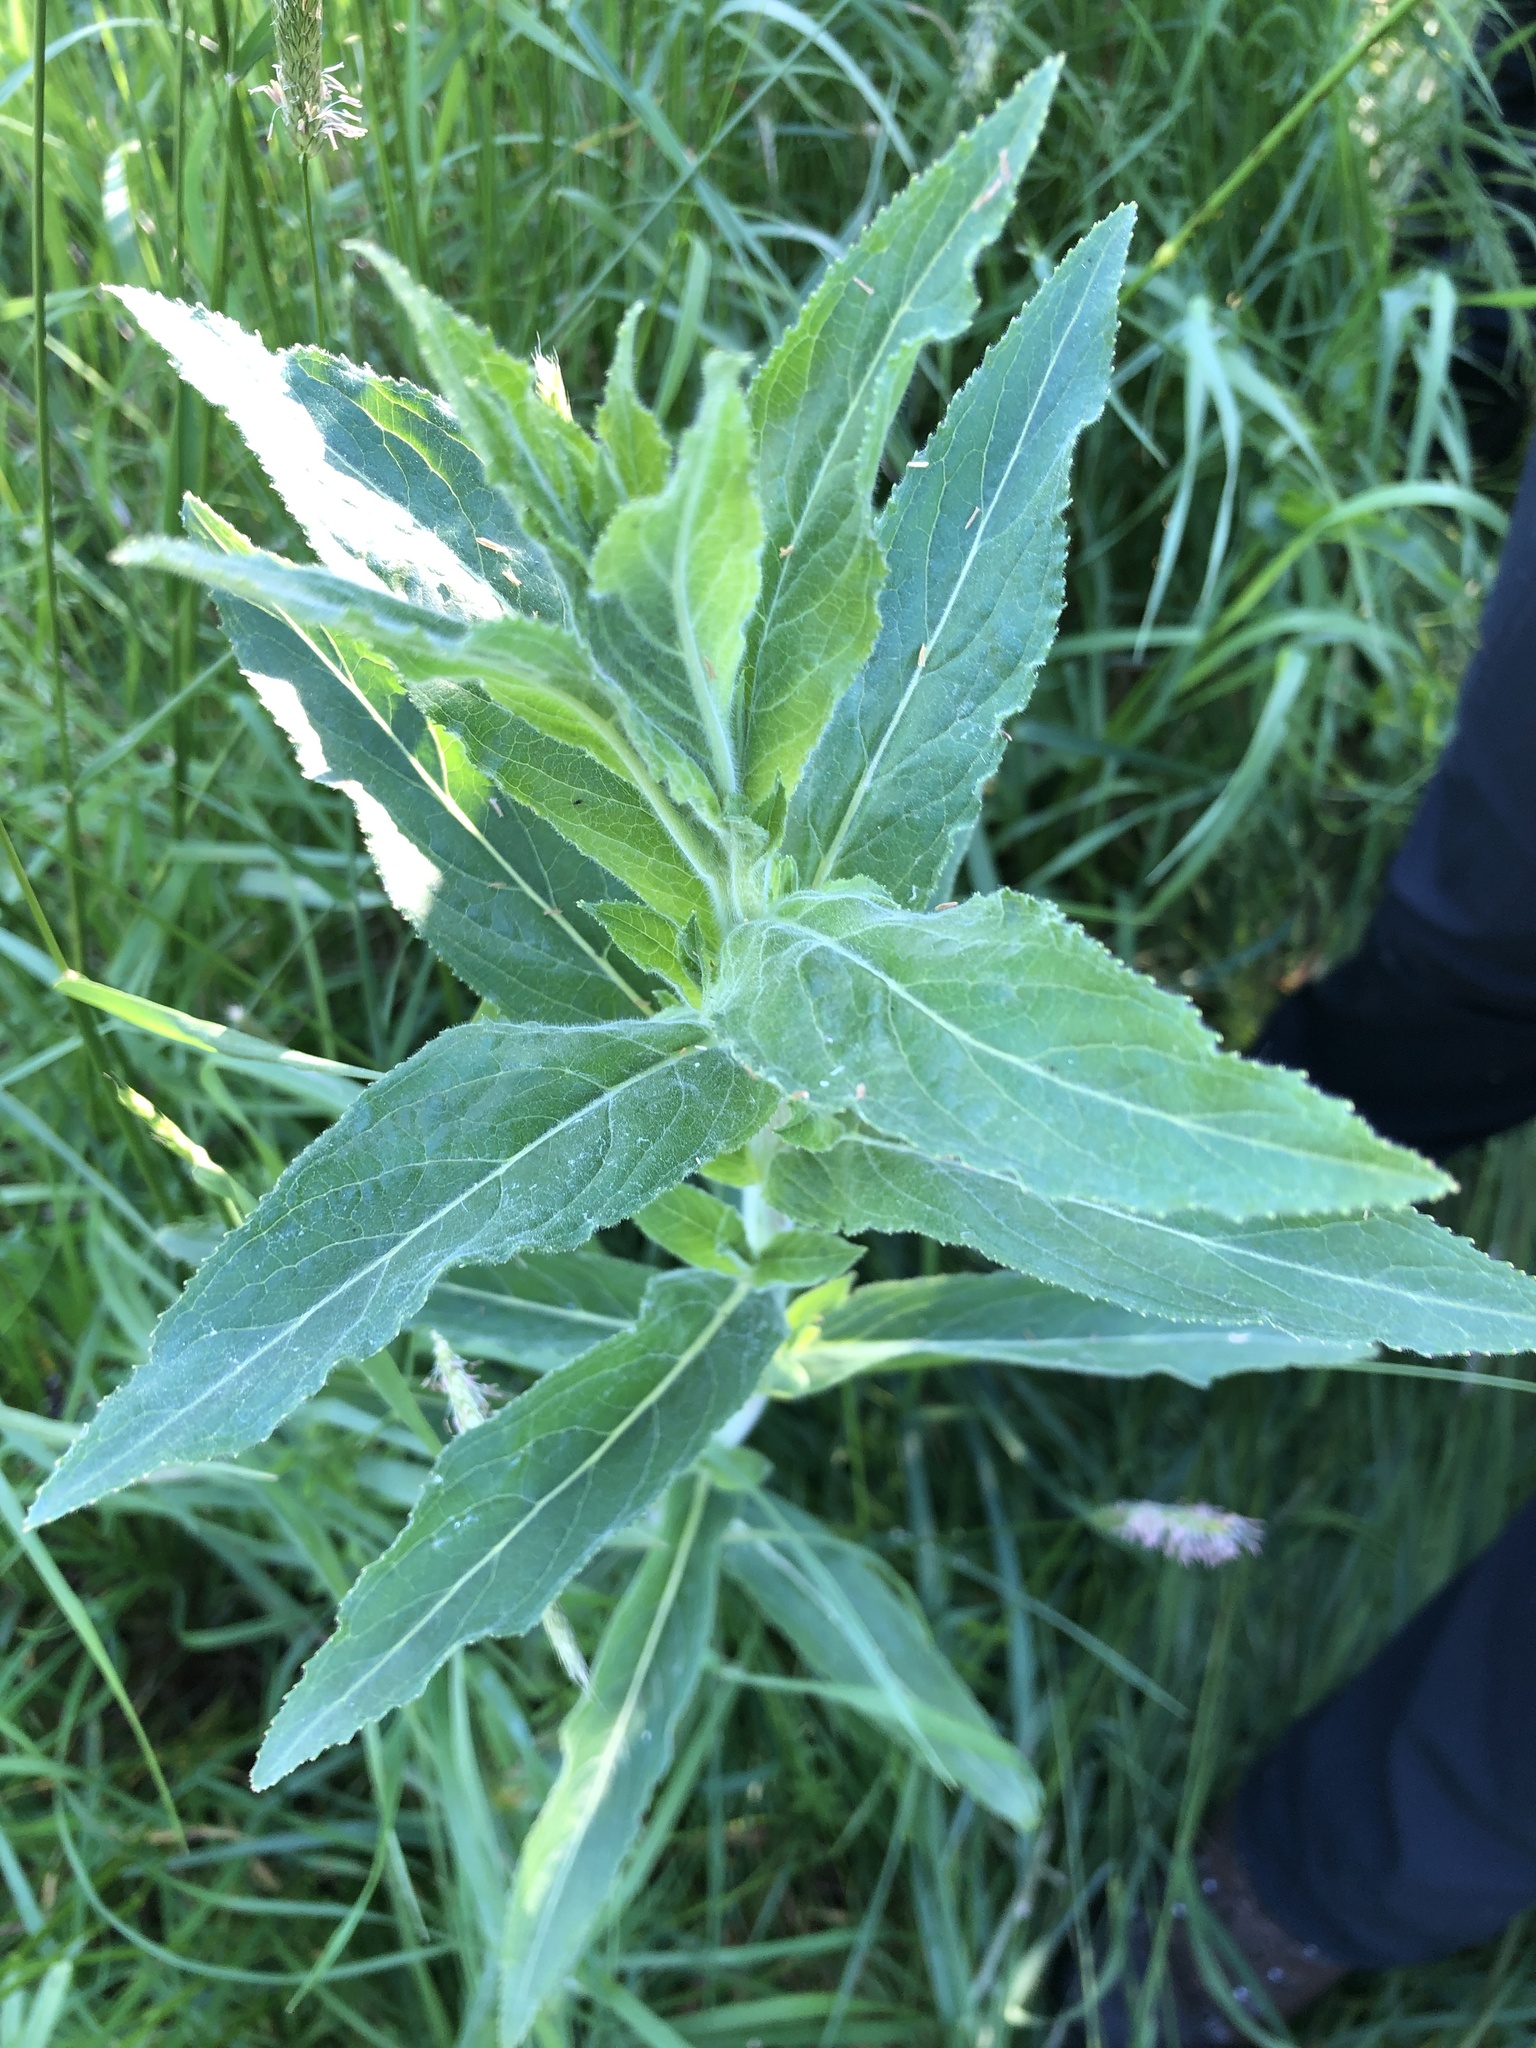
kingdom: Plantae
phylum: Tracheophyta
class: Magnoliopsida
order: Myrtales
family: Onagraceae
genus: Epilobium
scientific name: Epilobium hirsutum
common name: Great willowherb
